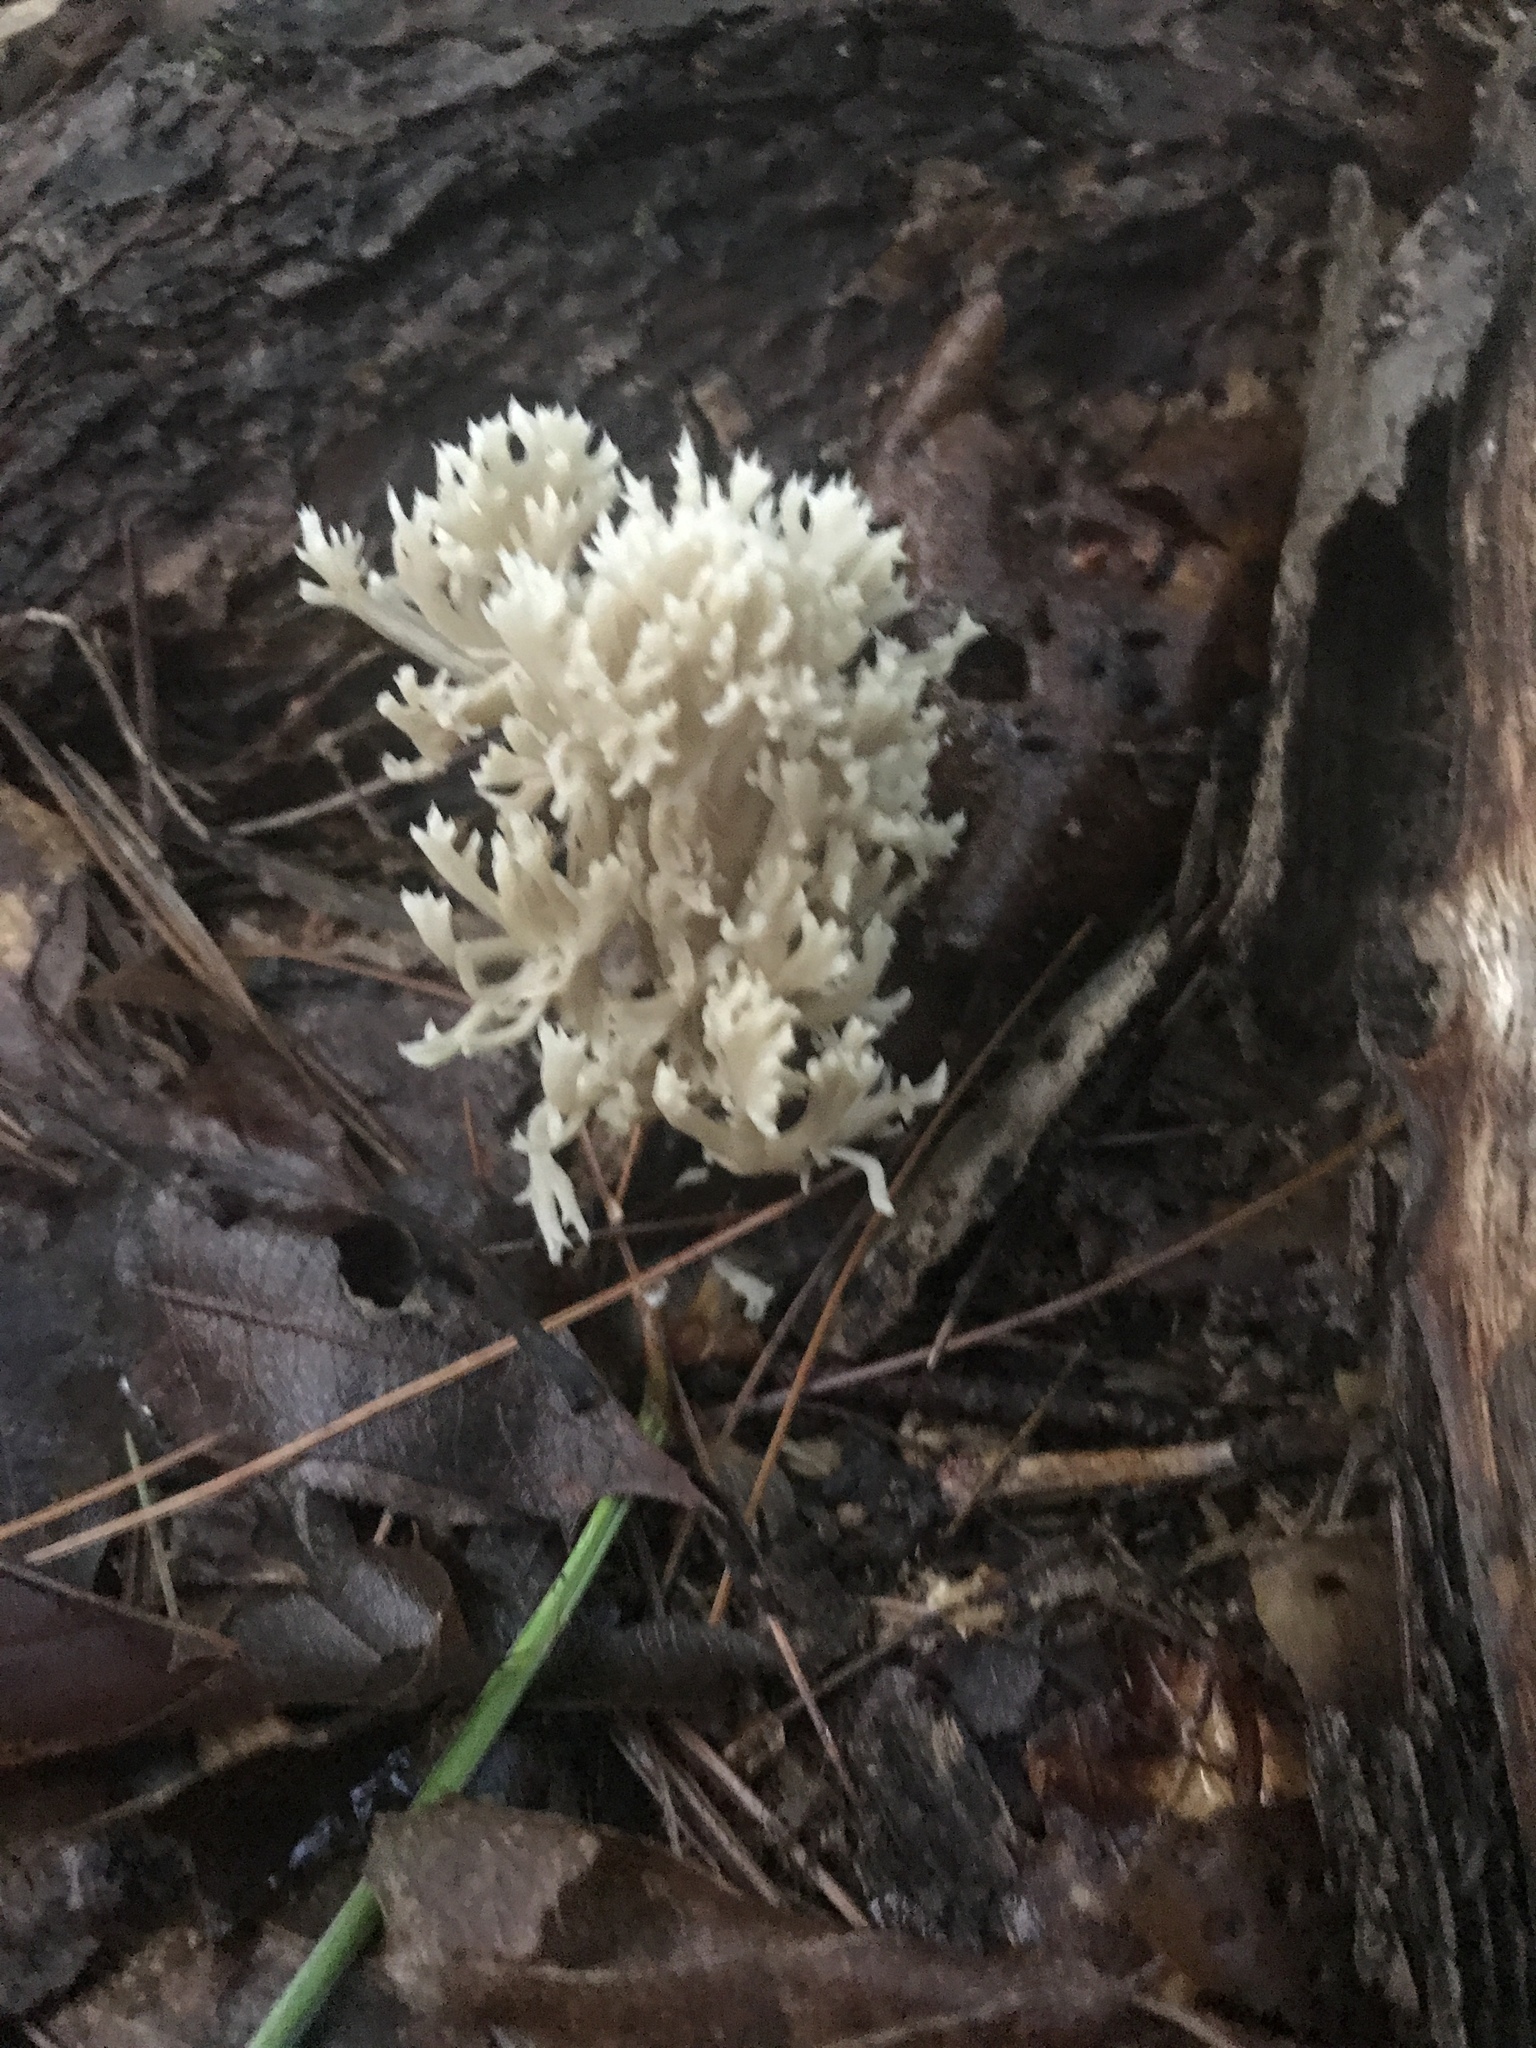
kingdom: Fungi
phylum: Basidiomycota
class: Agaricomycetes
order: Russulales
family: Auriscalpiaceae
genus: Artomyces
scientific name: Artomyces pyxidatus
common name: Crown-tipped coral fungus
